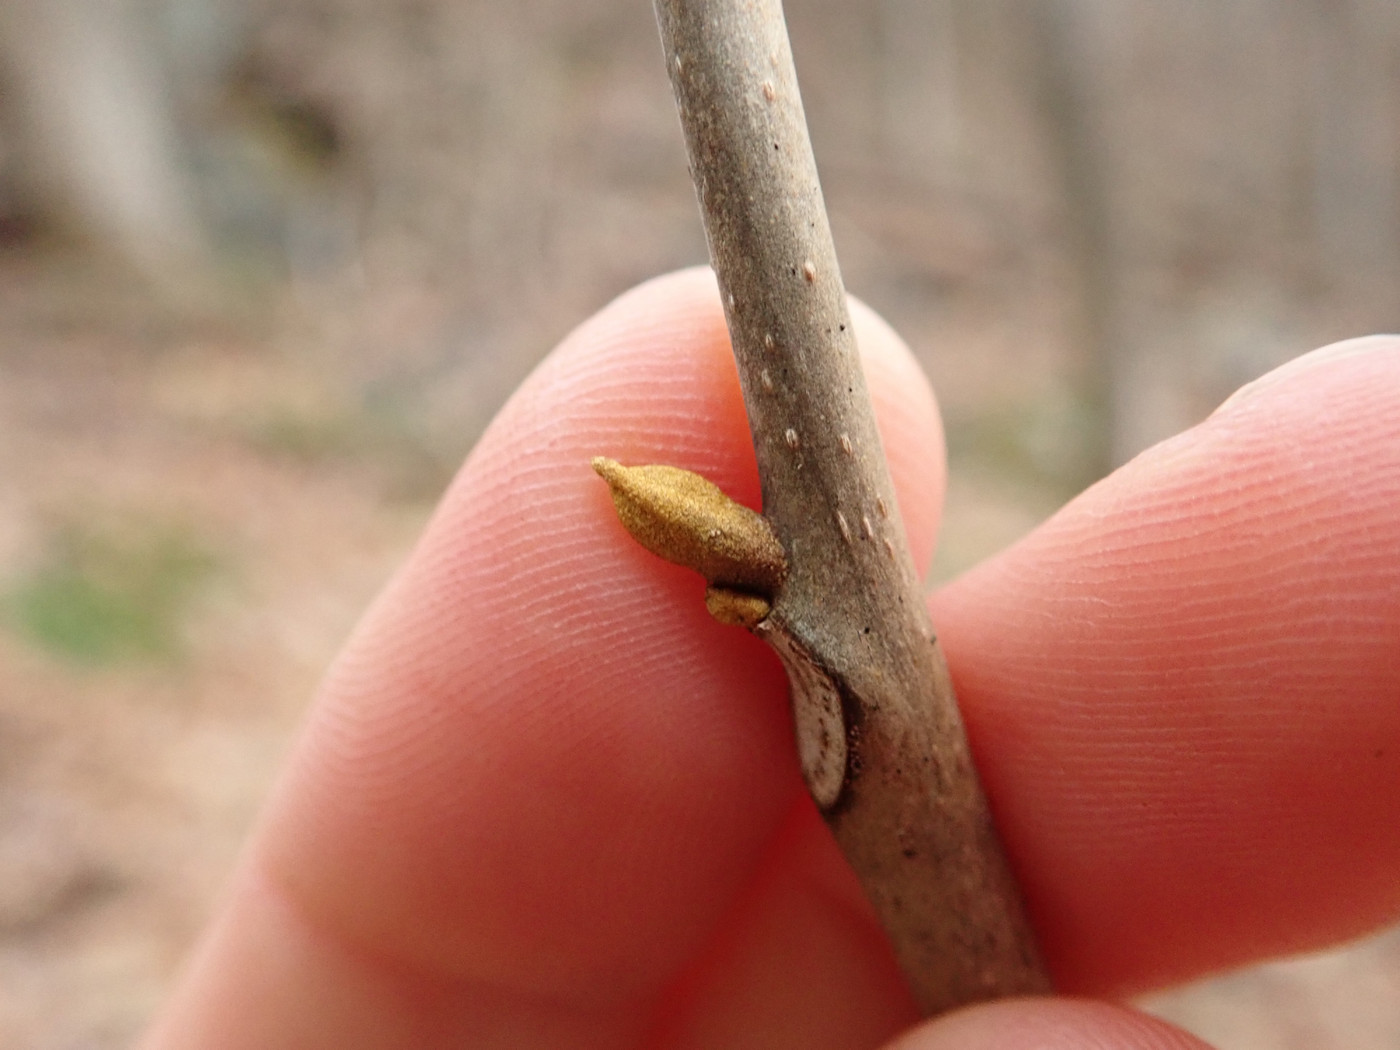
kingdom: Plantae
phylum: Tracheophyta
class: Magnoliopsida
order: Fagales
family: Juglandaceae
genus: Carya
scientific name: Carya cordiformis
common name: Bitternut hickory
